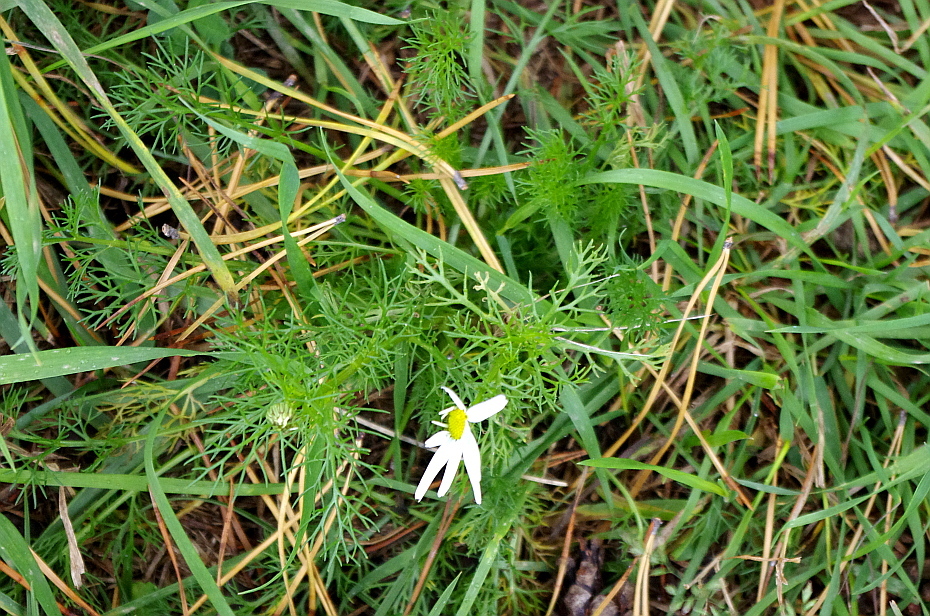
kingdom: Plantae
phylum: Tracheophyta
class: Magnoliopsida
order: Asterales
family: Asteraceae
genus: Tripleurospermum
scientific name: Tripleurospermum inodorum
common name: Scentless mayweed
